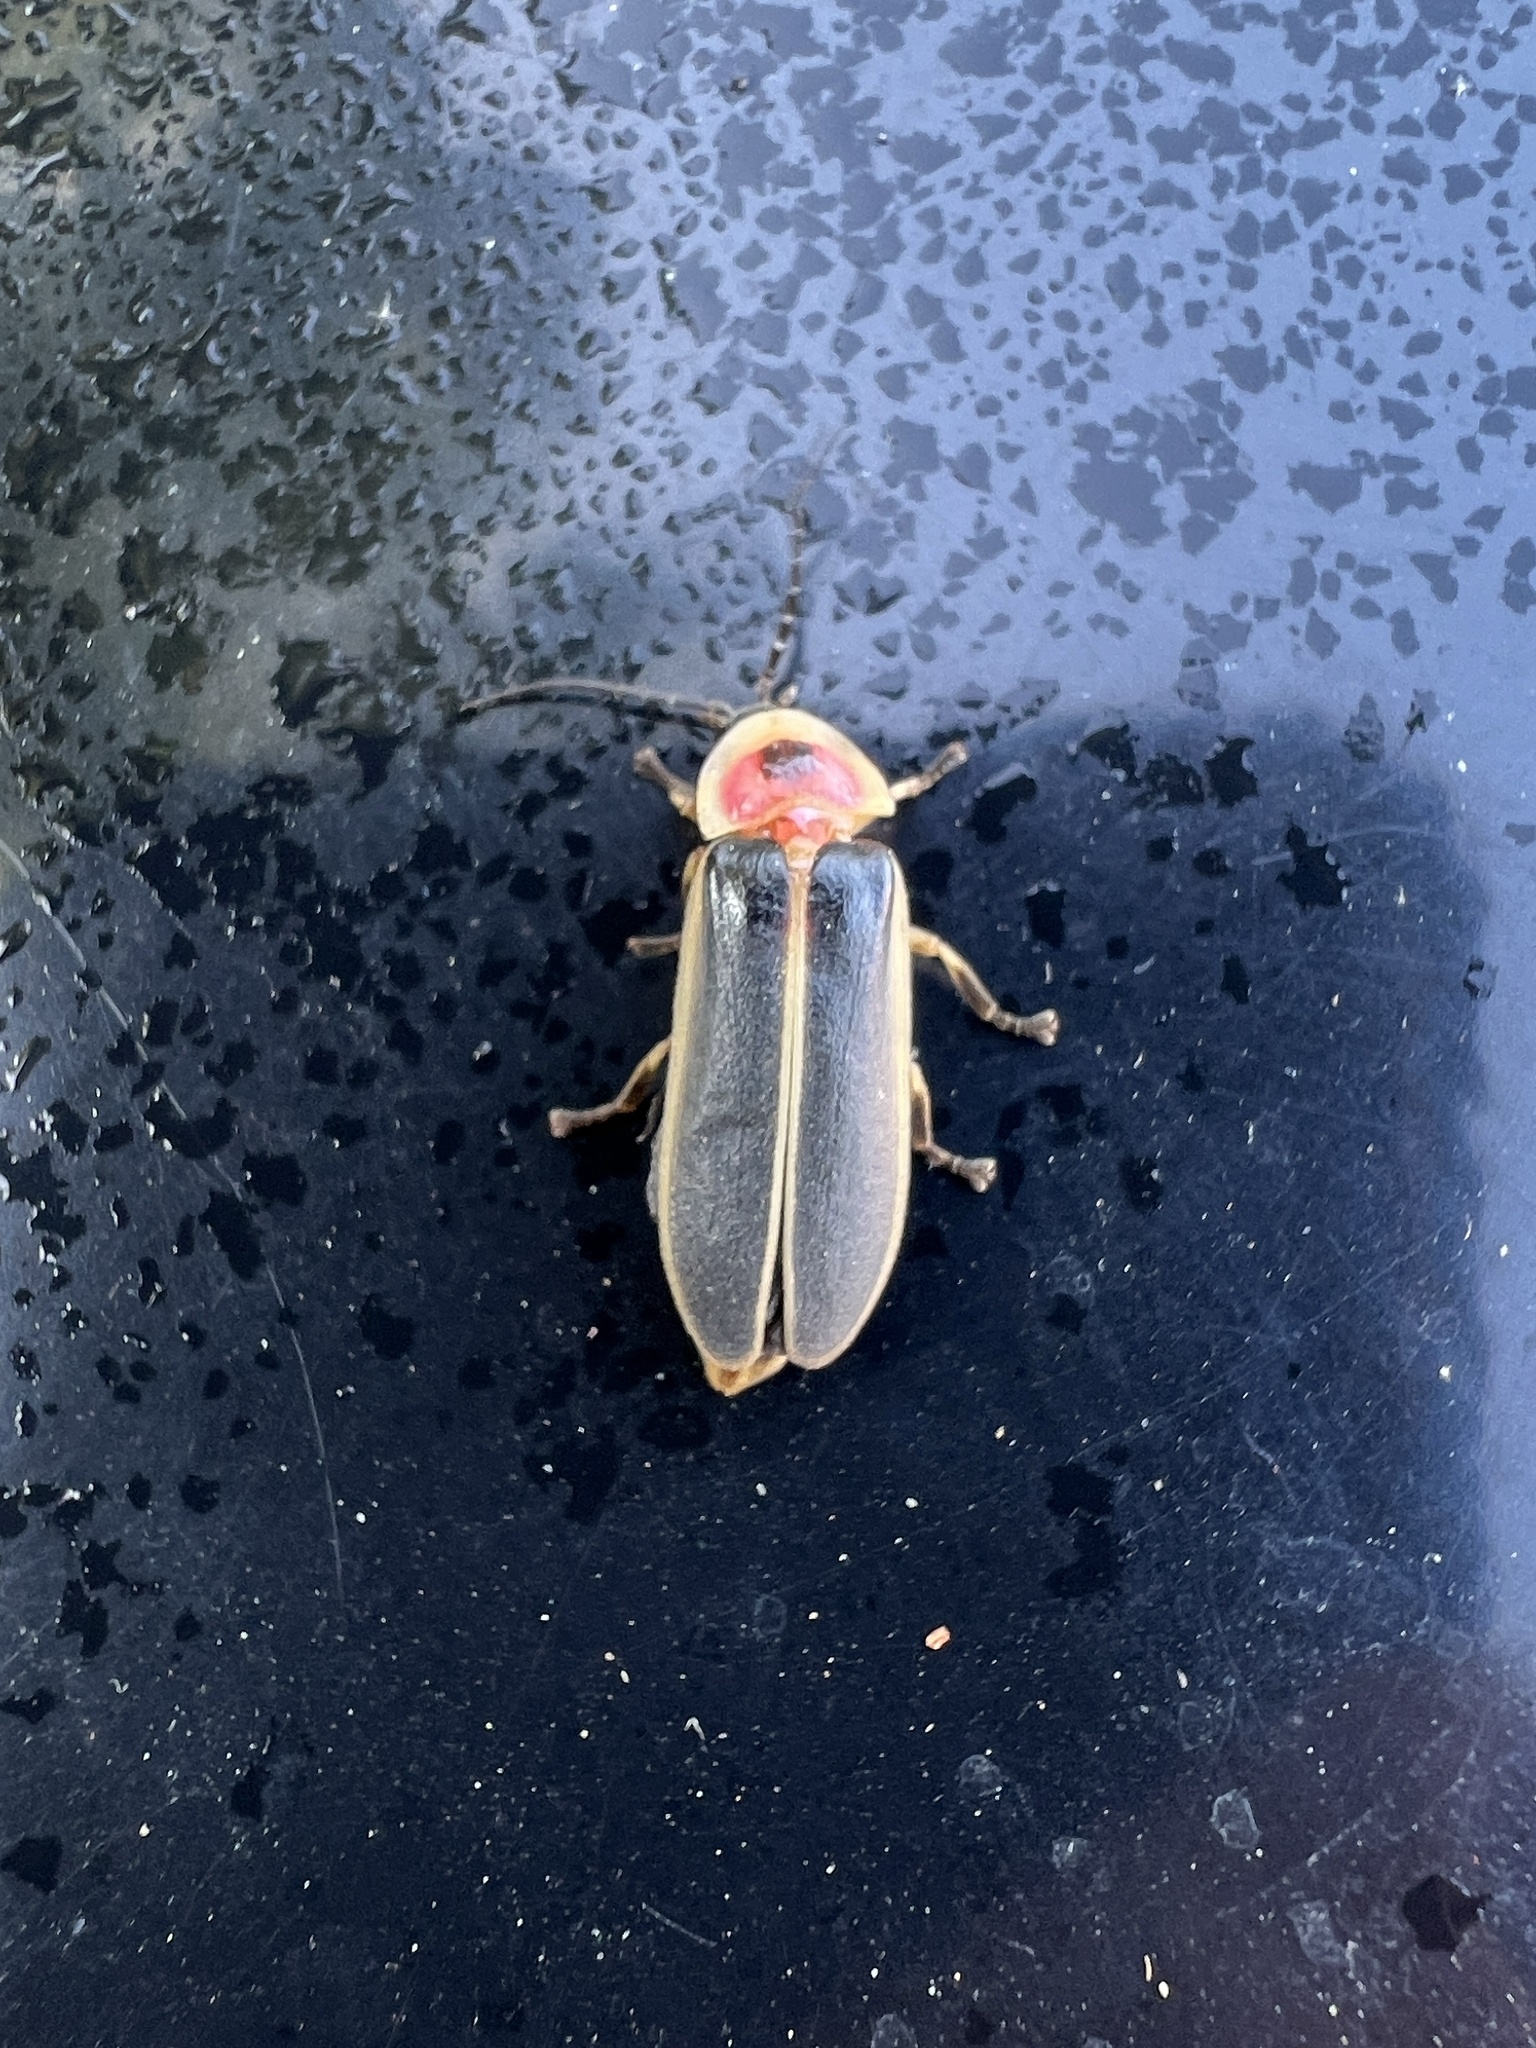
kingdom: Animalia
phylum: Arthropoda
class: Insecta
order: Coleoptera
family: Lampyridae
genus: Photinus
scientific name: Photinus pyralis
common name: Big dipper firefly
